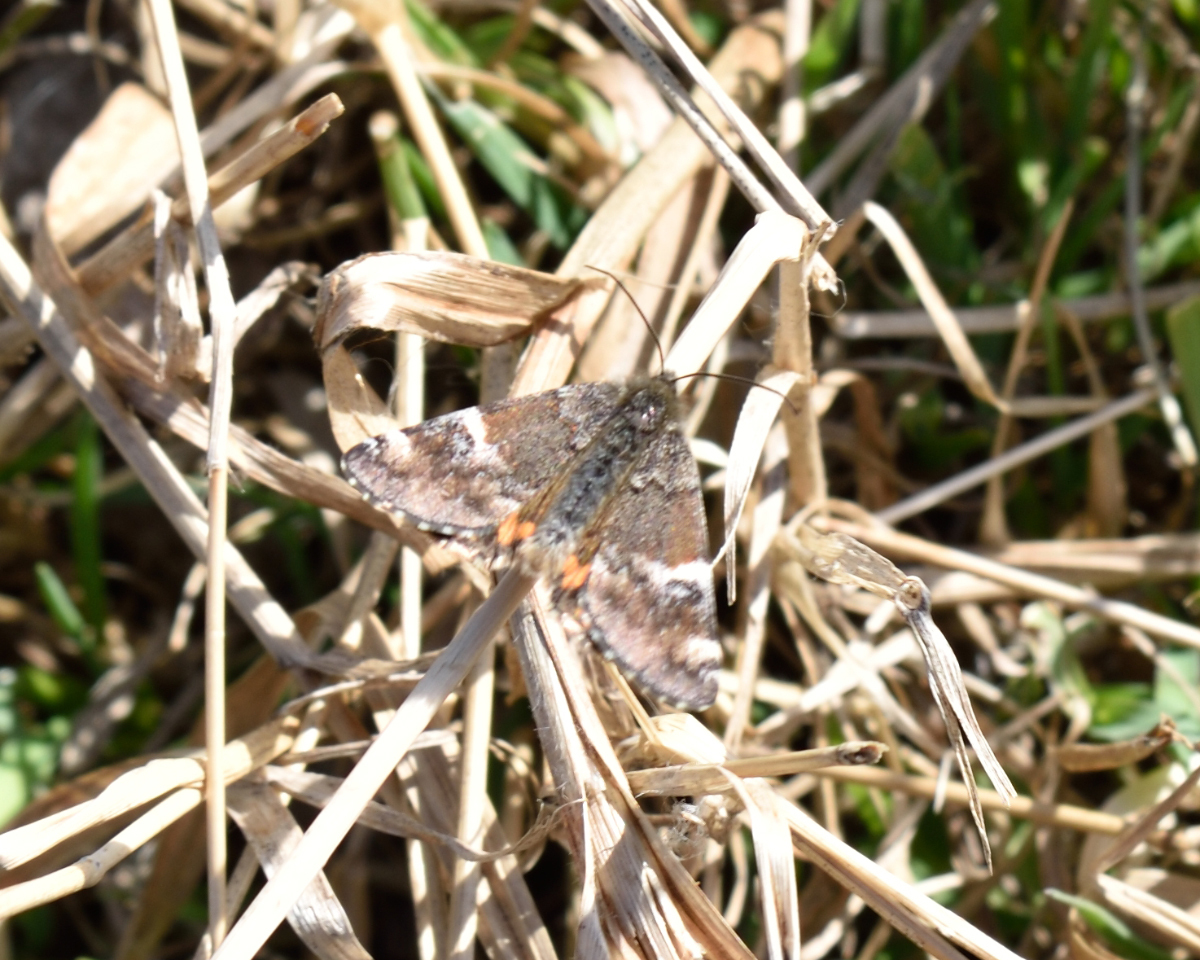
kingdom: Animalia
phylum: Arthropoda
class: Insecta
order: Lepidoptera
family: Geometridae
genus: Archiearis
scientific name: Archiearis parthenias
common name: Orange underwing
